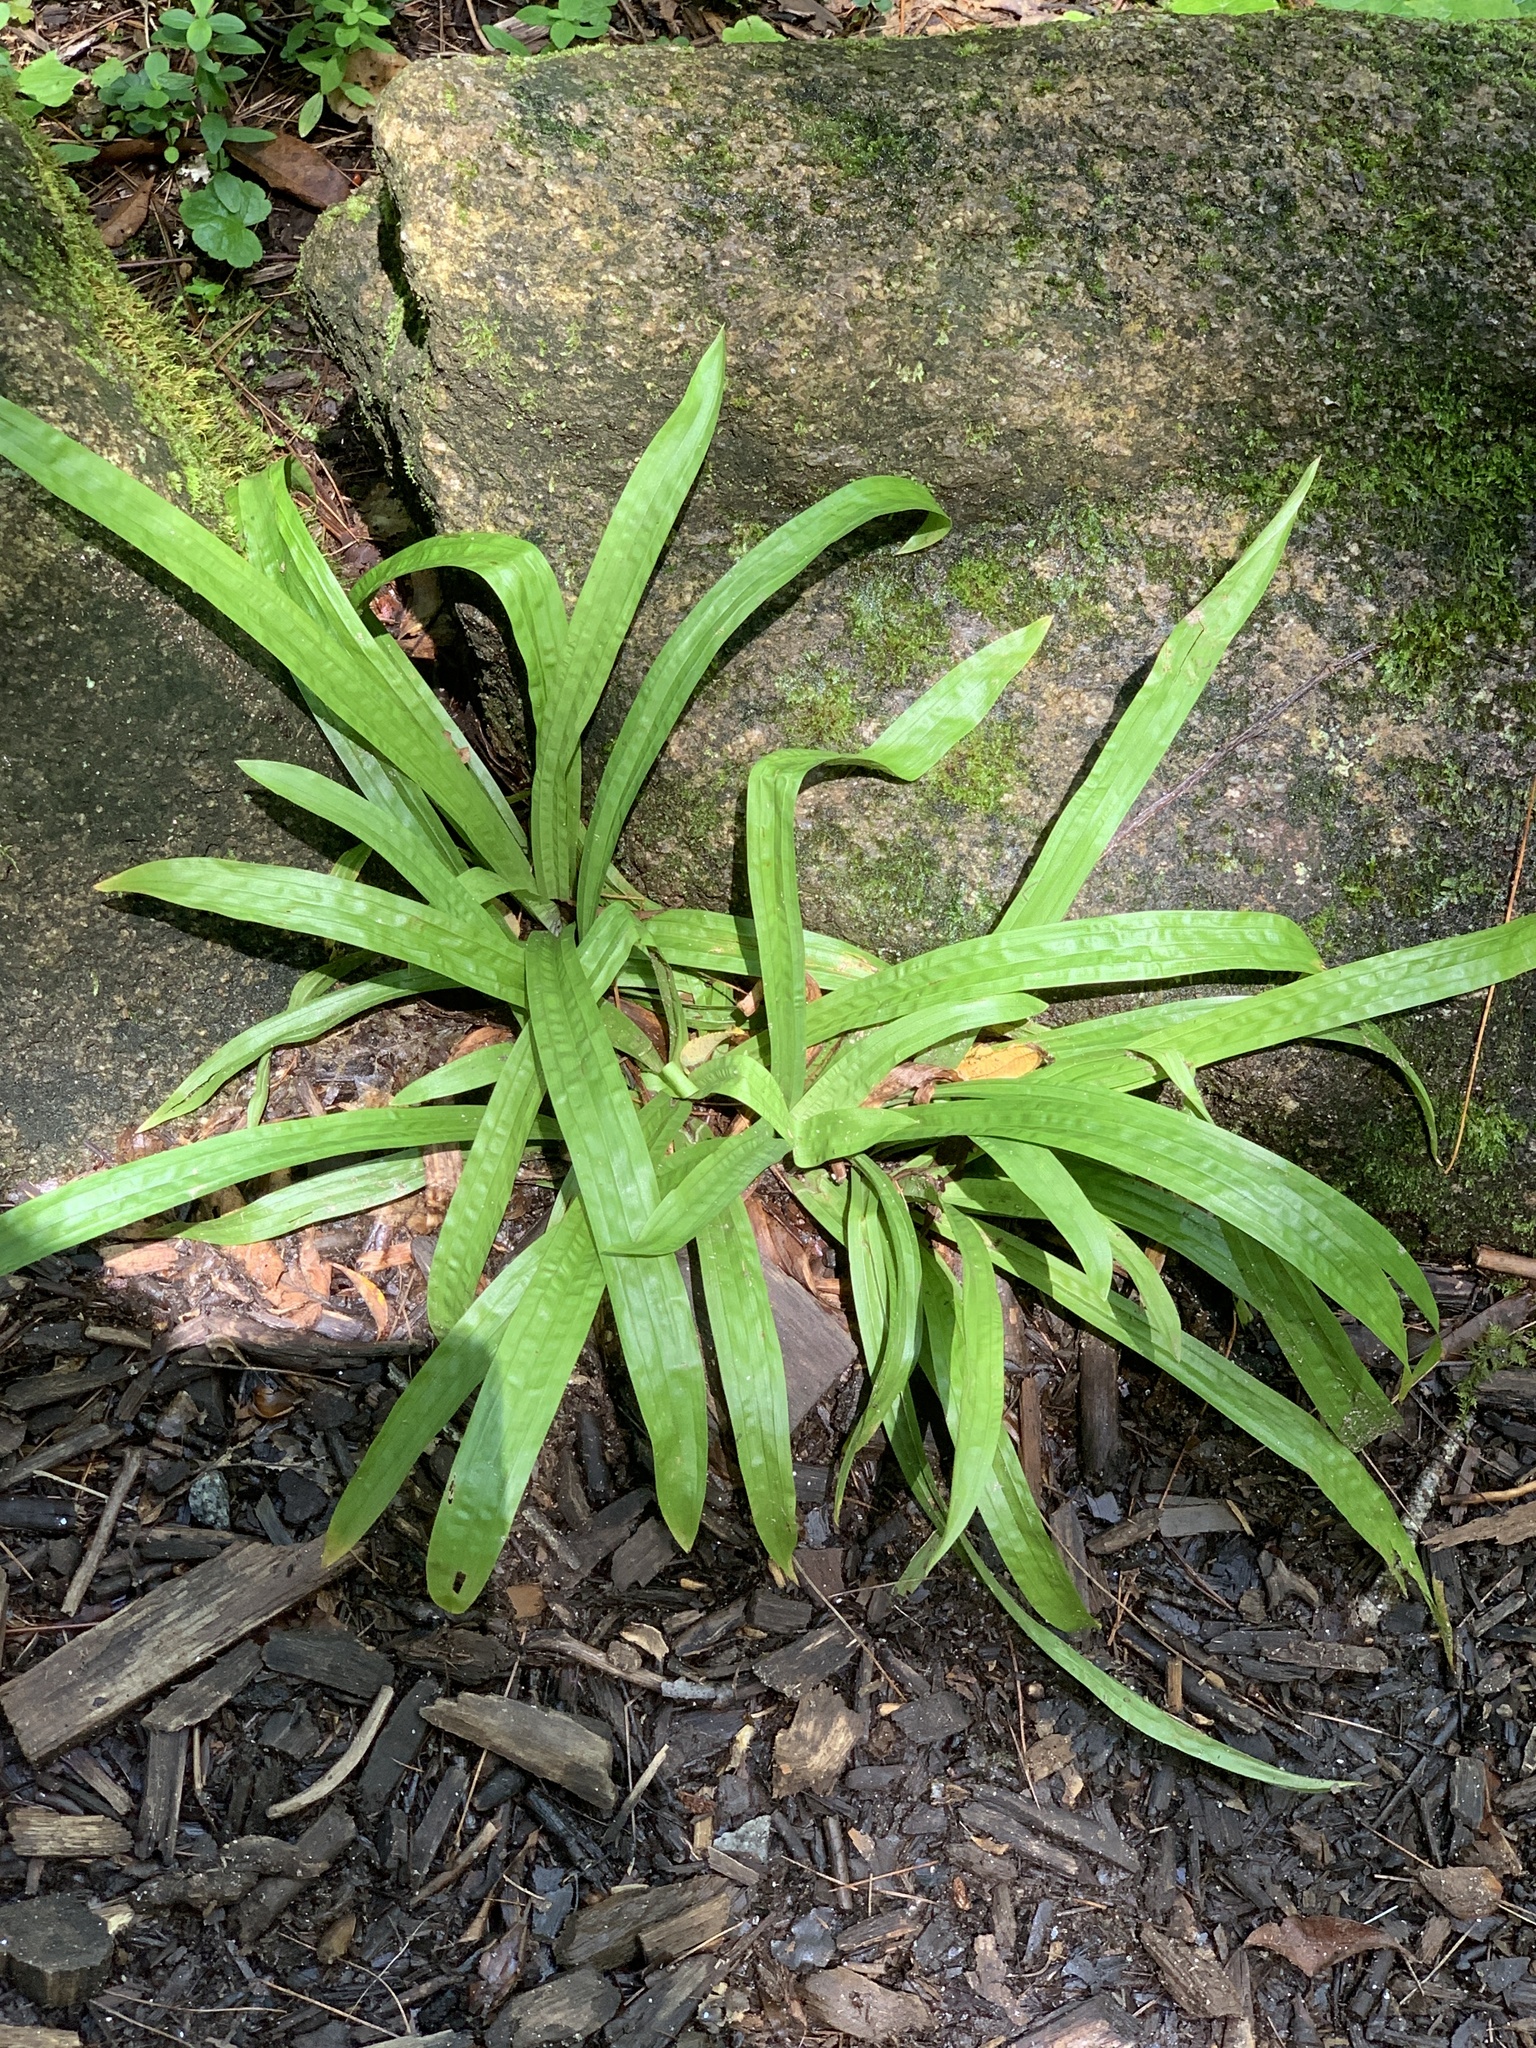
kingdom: Plantae
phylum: Tracheophyta
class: Liliopsida
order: Poales
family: Cyperaceae
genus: Carex
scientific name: Carex plantaginea
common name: Plantain-leaved sedge
